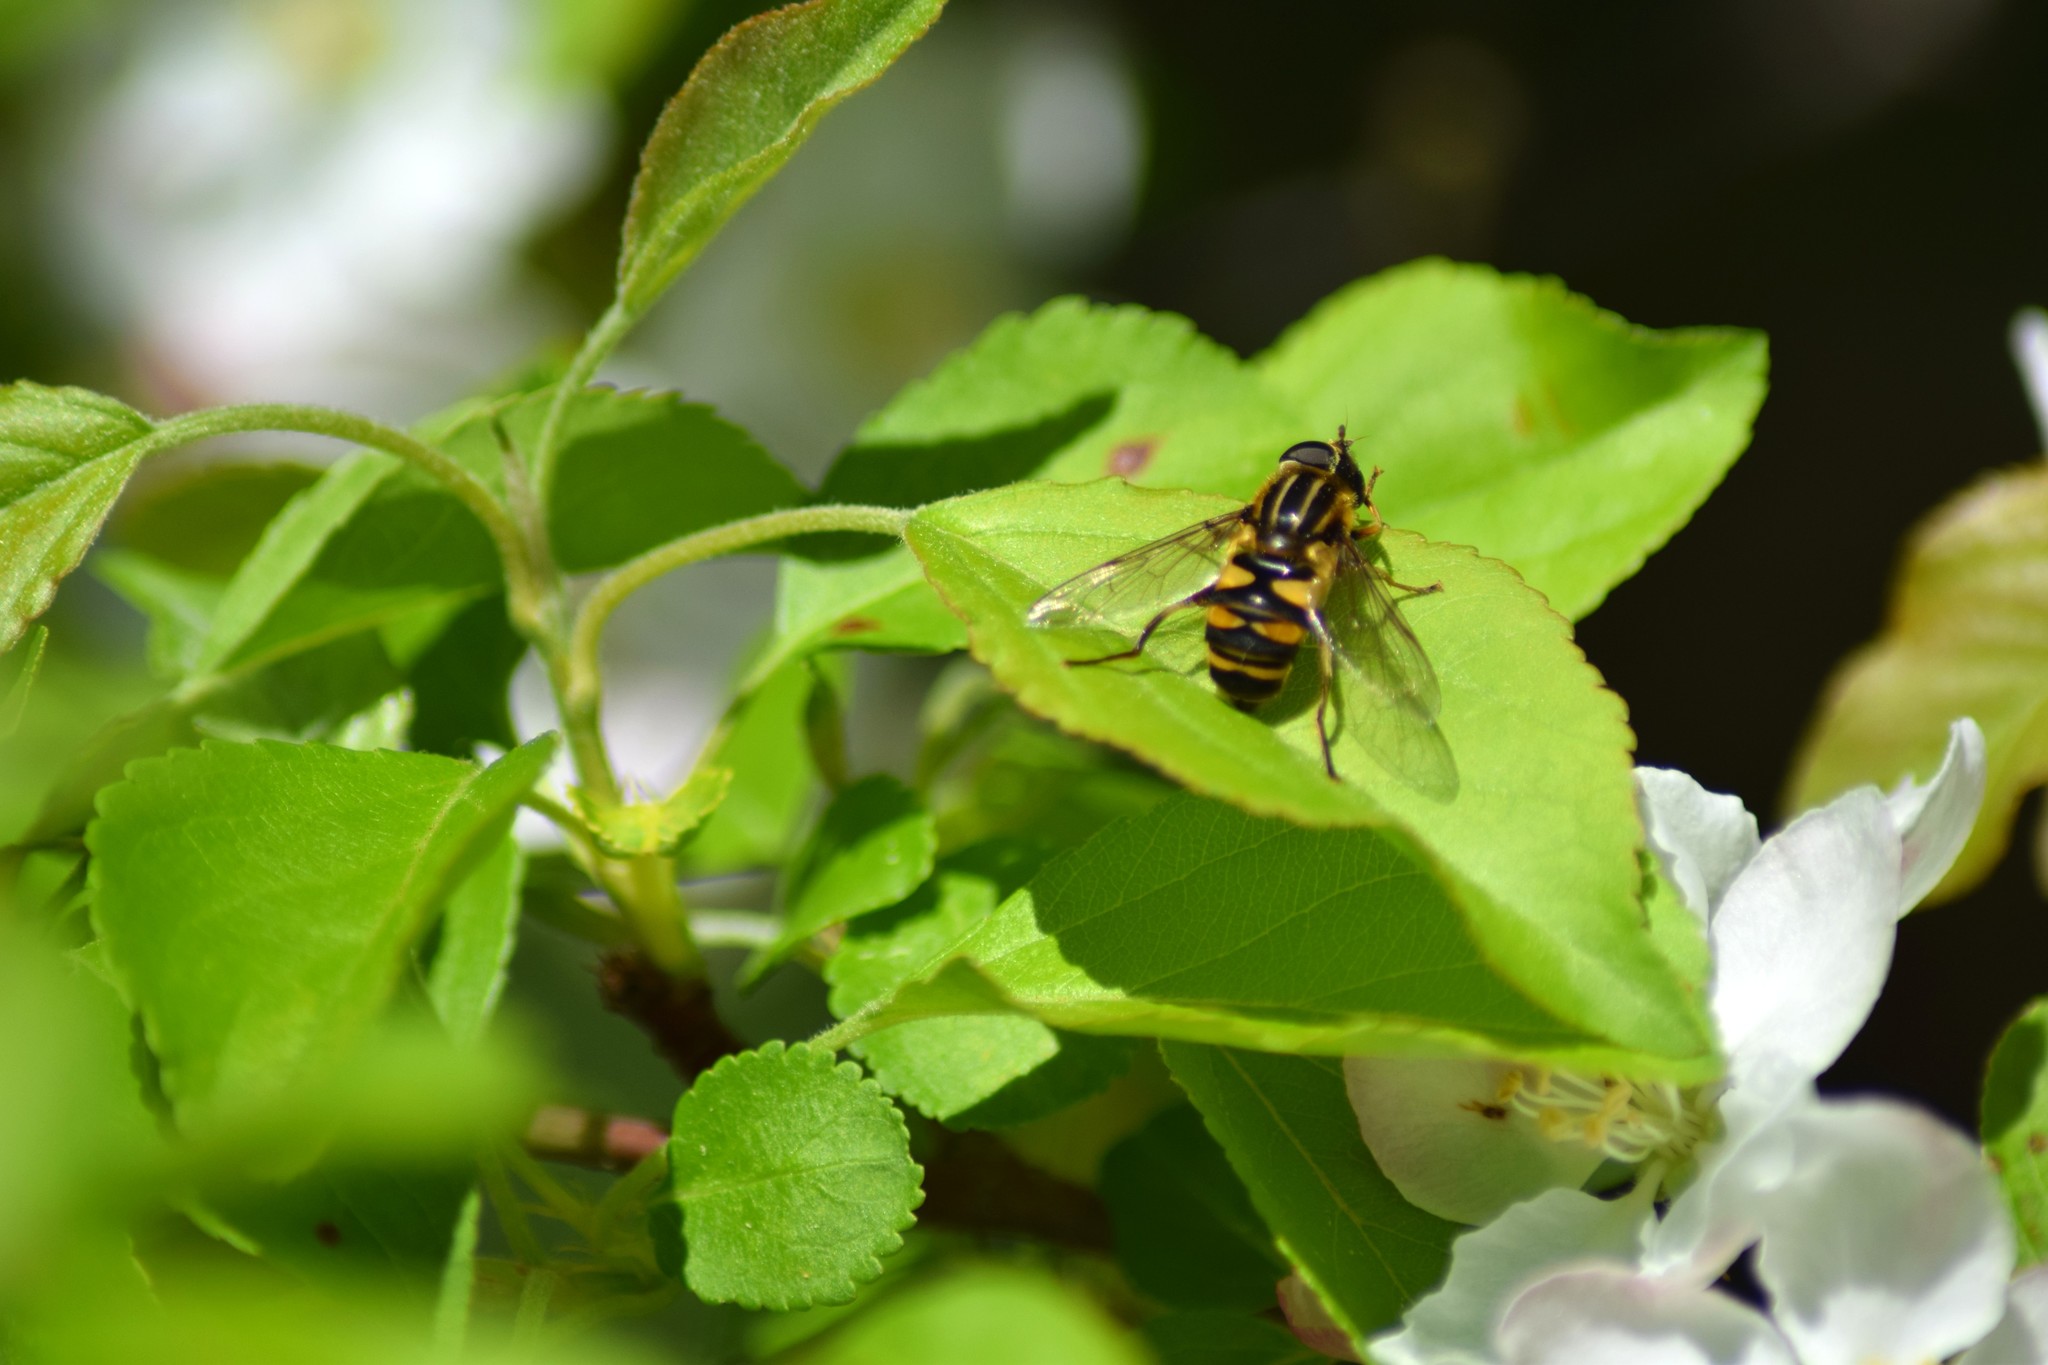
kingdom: Animalia
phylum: Arthropoda
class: Insecta
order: Diptera
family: Syrphidae
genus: Helophilus
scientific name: Helophilus fasciatus
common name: Narrow-headed marsh fly
